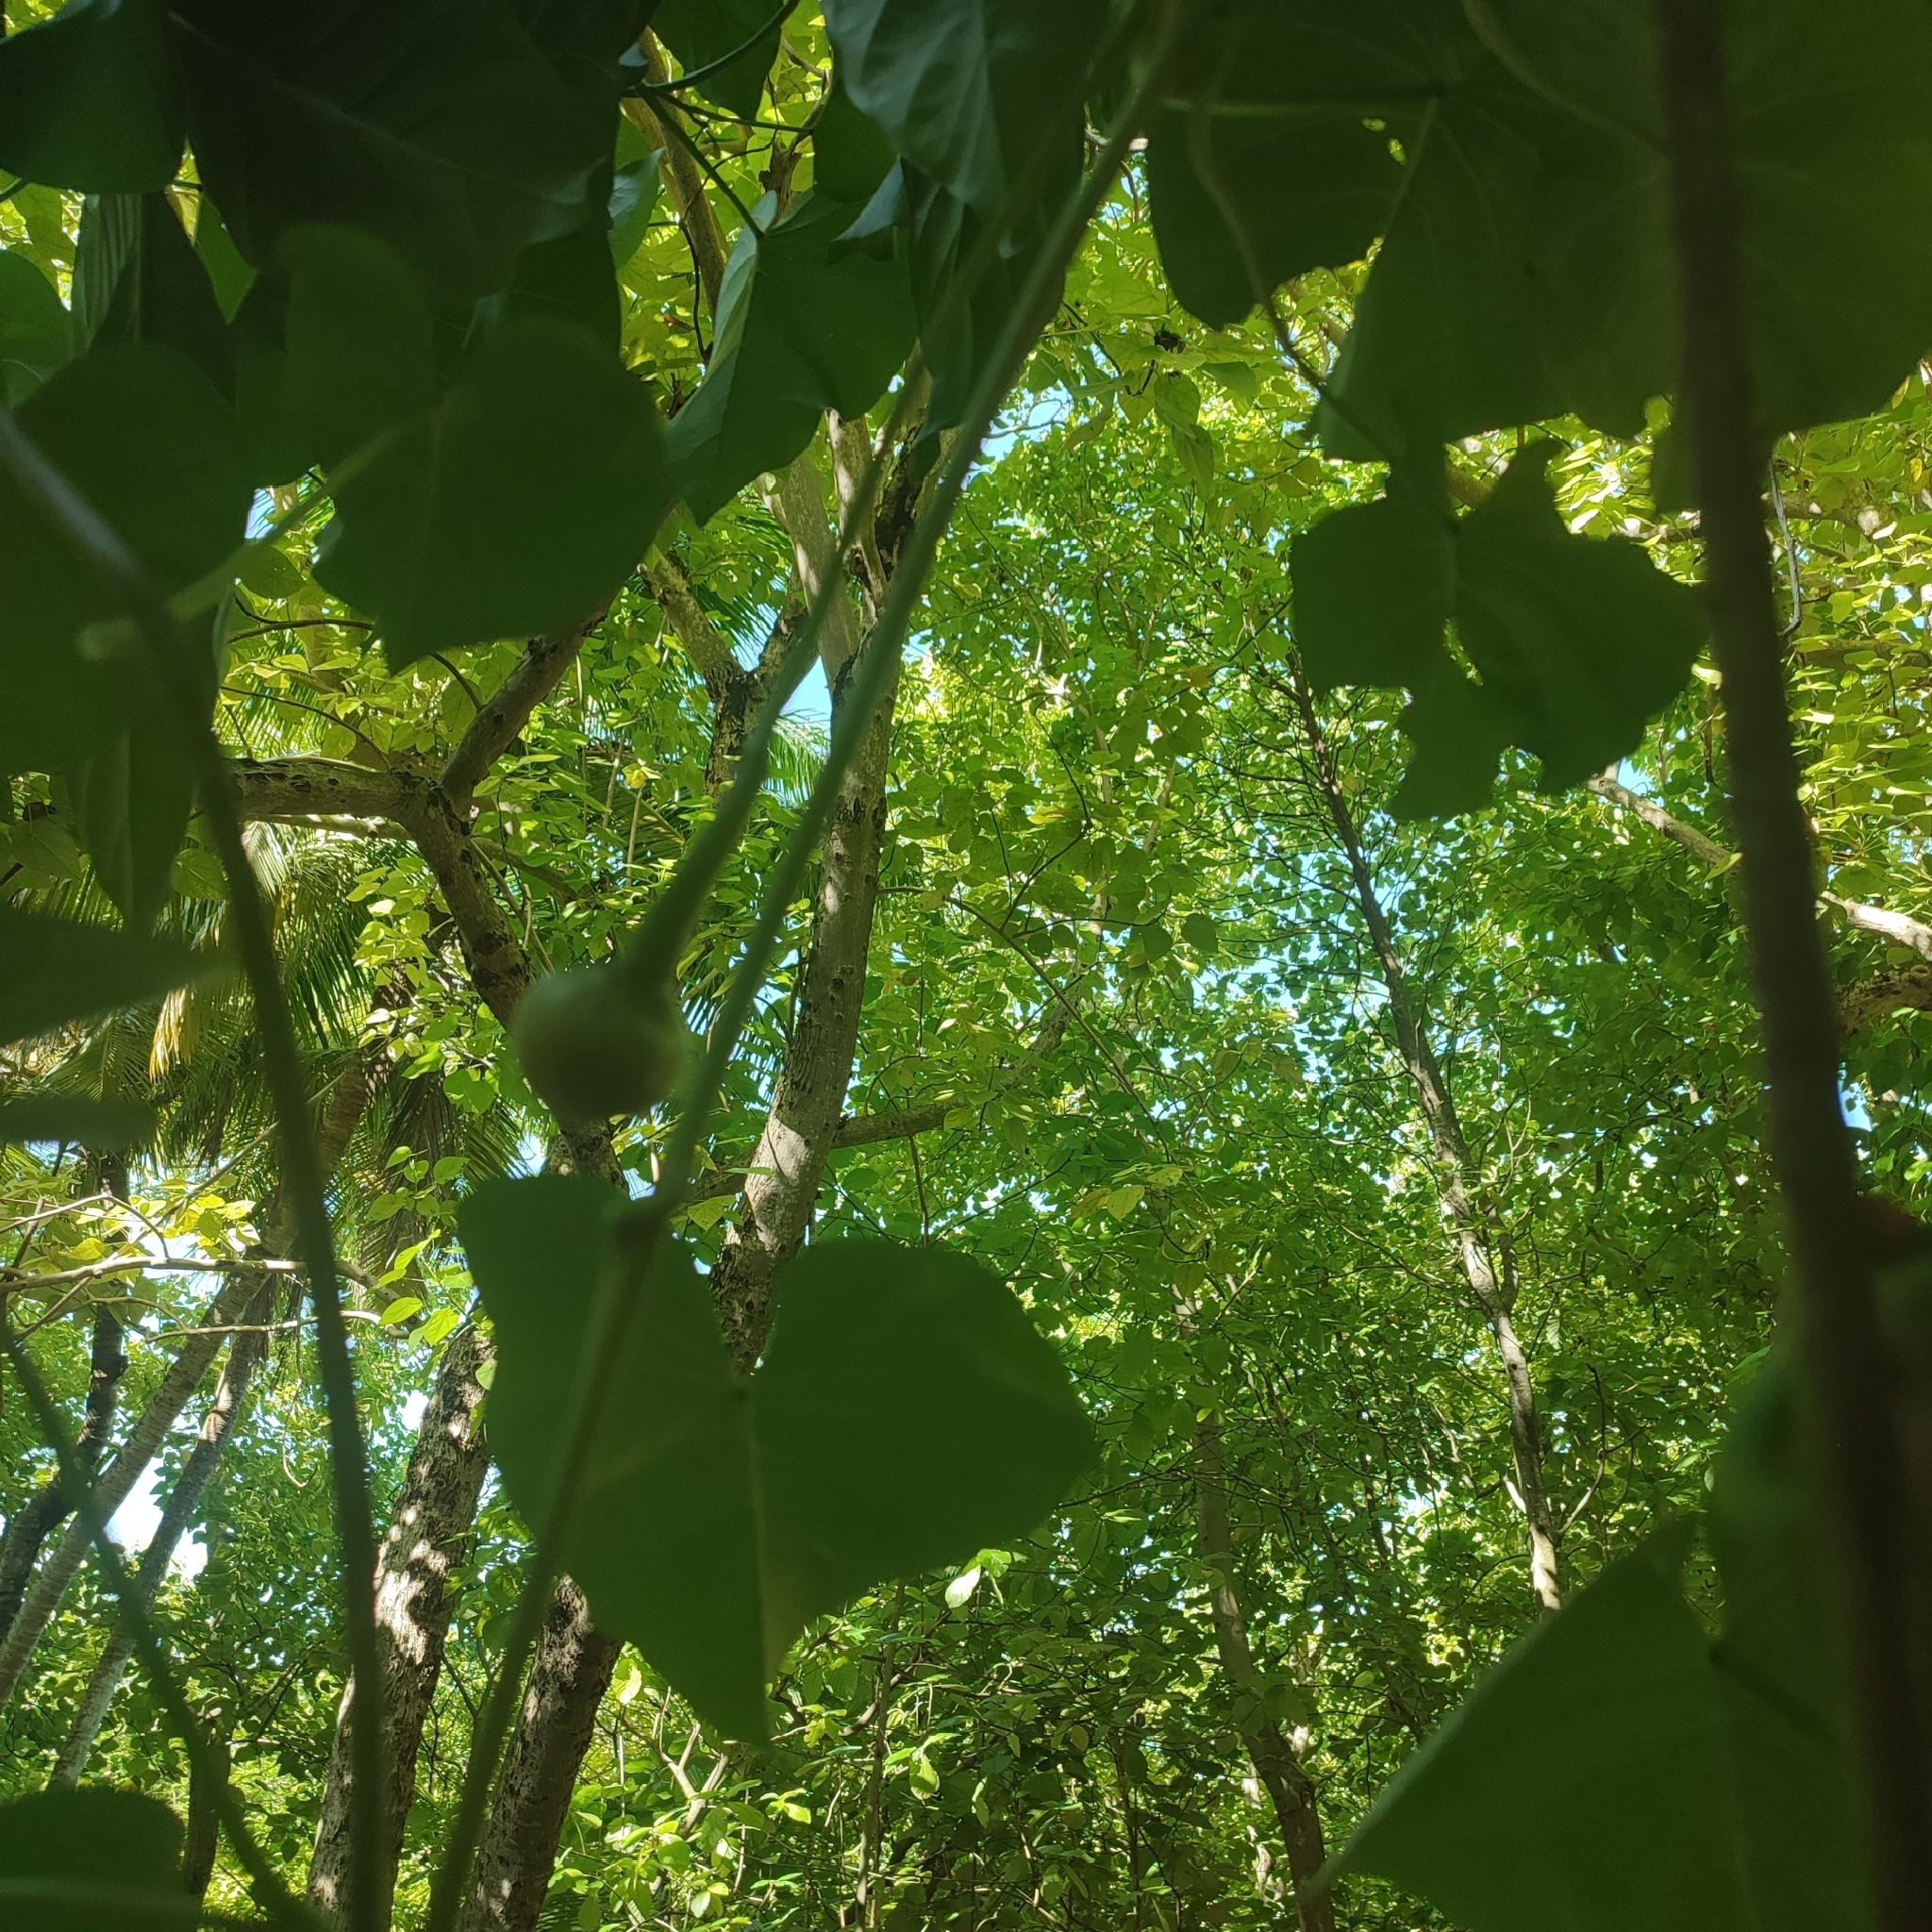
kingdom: Plantae
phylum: Tracheophyta
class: Magnoliopsida
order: Solanales
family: Convolvulaceae
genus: Ipomoea
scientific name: Ipomoea violacea
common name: Beach moonflower
